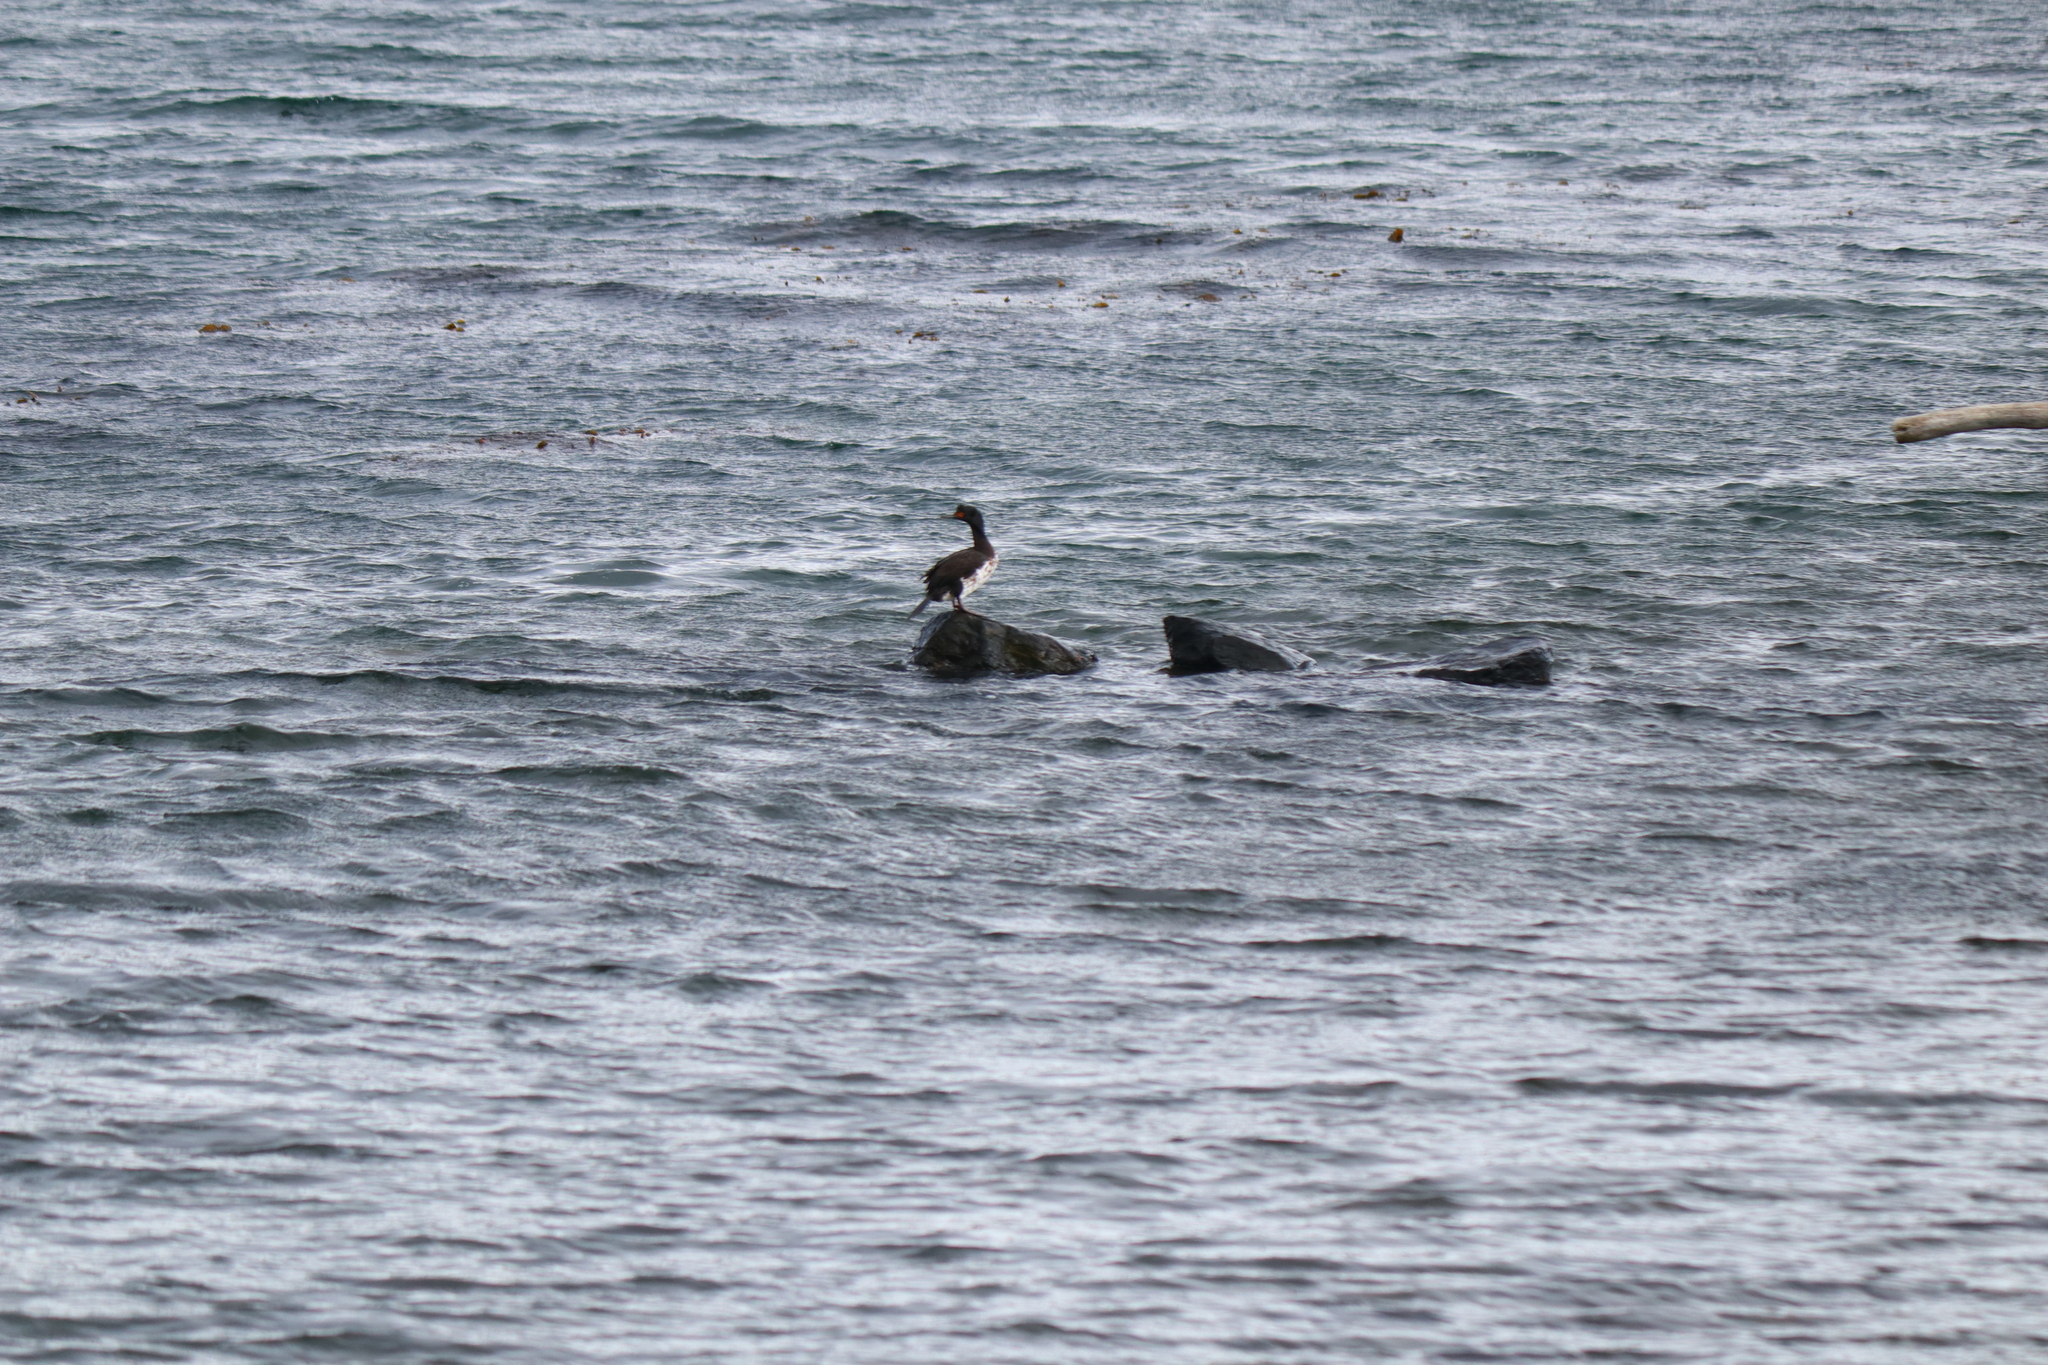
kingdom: Animalia
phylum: Chordata
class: Aves
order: Suliformes
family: Phalacrocoracidae
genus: Phalacrocorax
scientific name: Phalacrocorax magellanicus
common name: Rock shag
